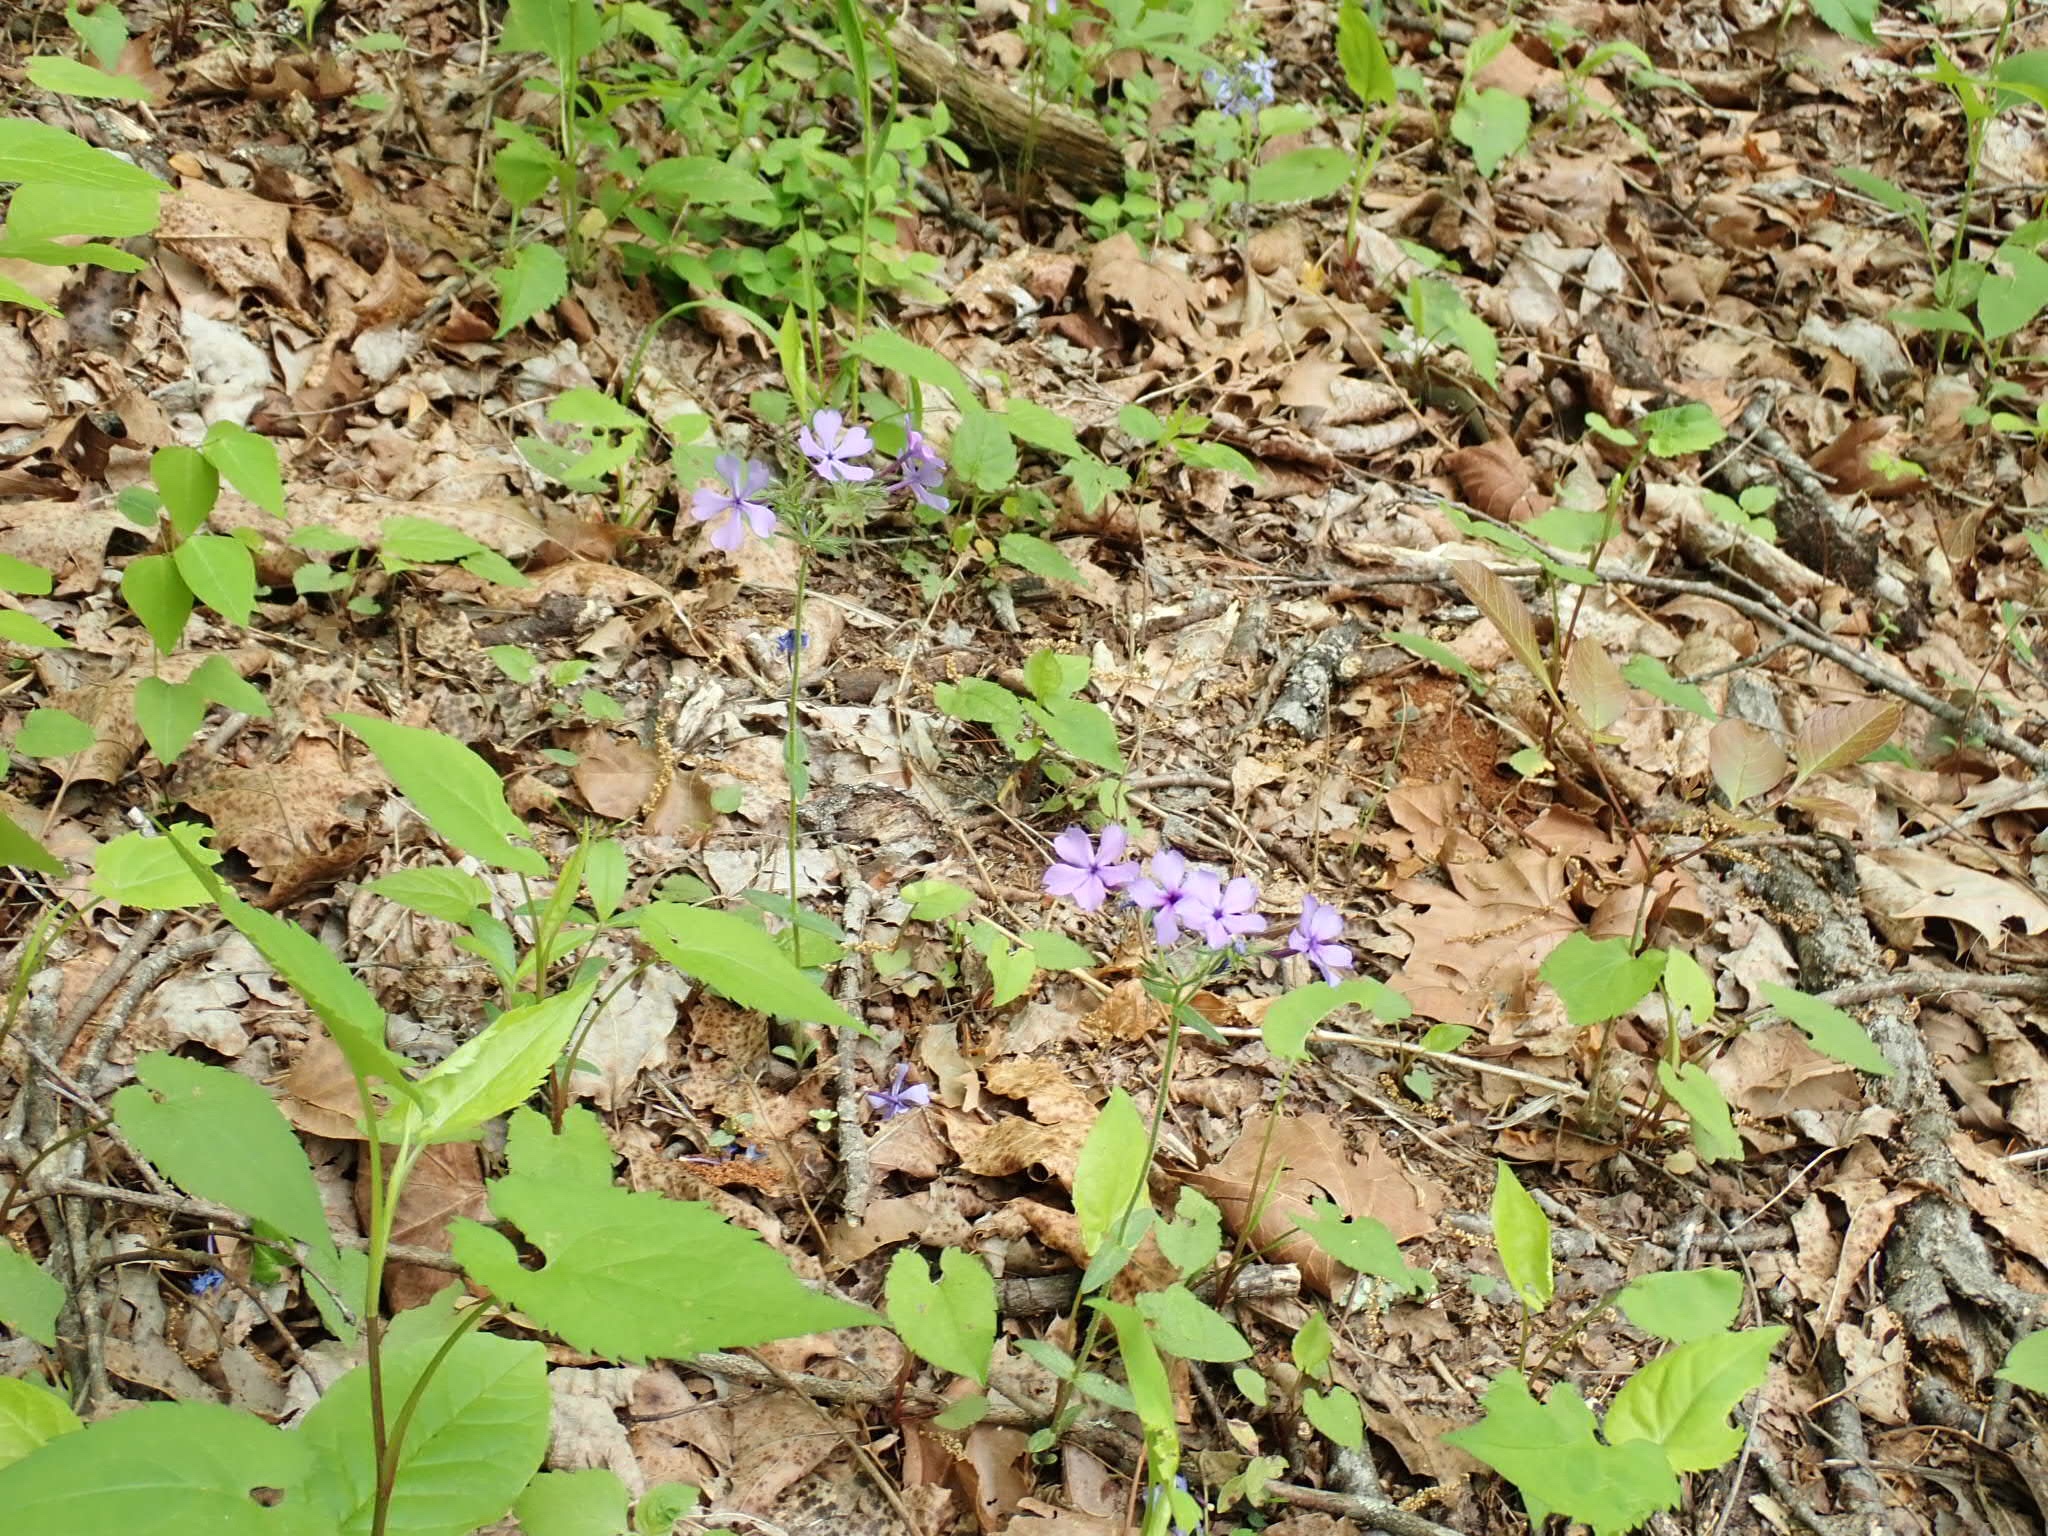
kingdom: Plantae
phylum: Tracheophyta
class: Magnoliopsida
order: Ericales
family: Polemoniaceae
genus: Phlox
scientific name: Phlox divaricata
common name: Blue phlox
